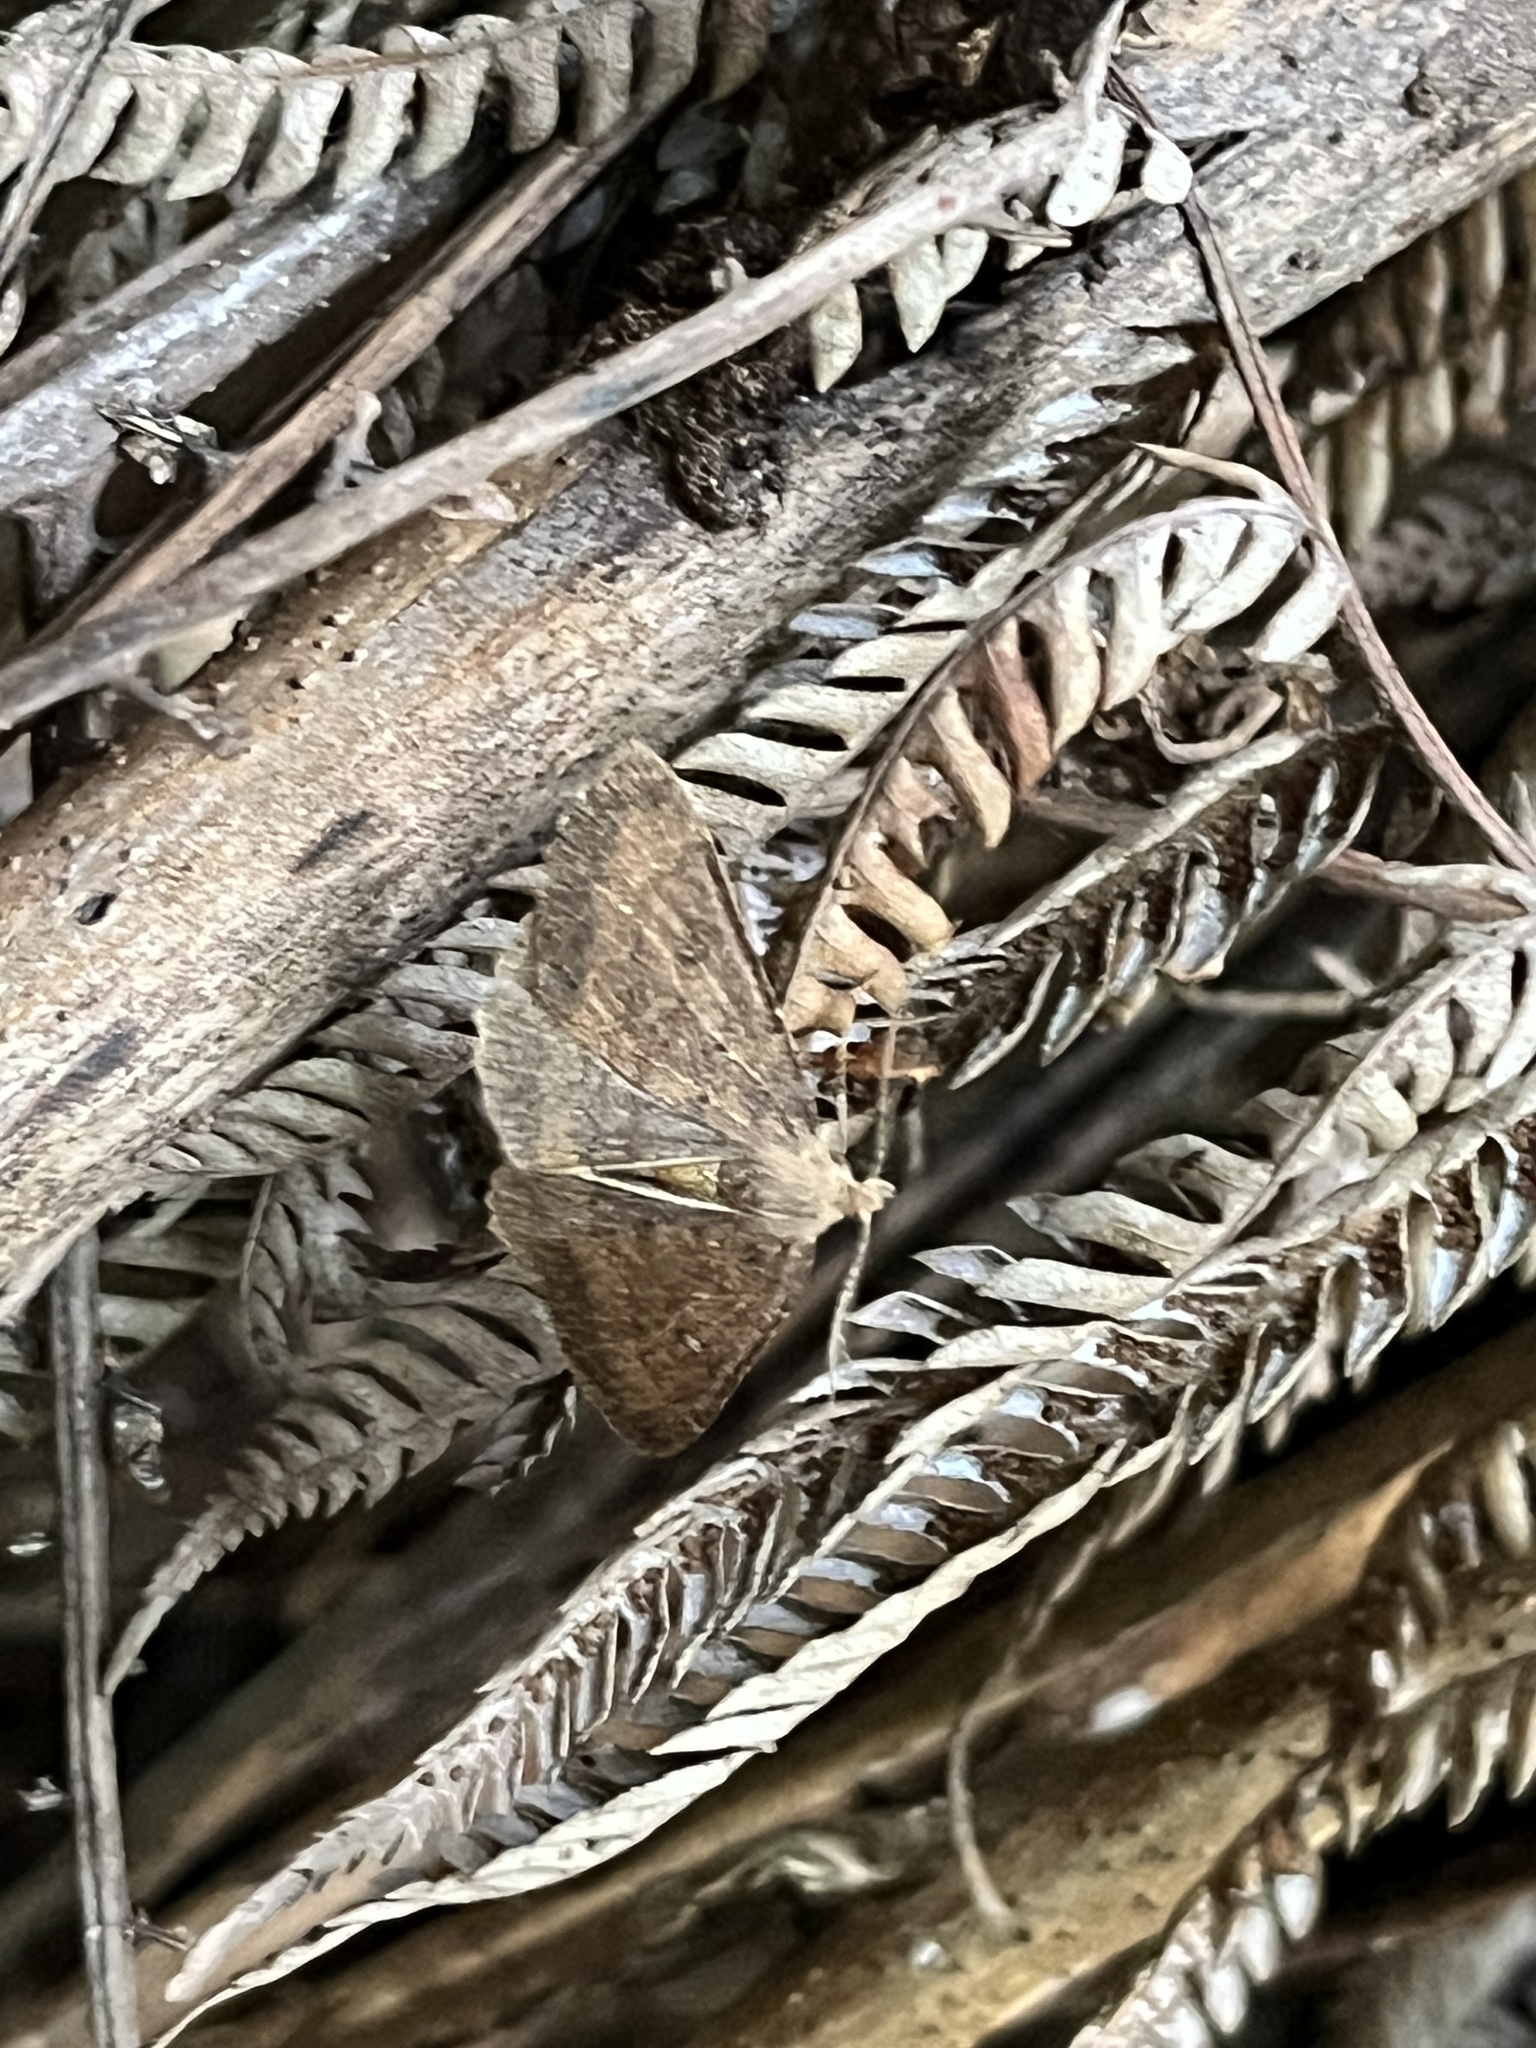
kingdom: Animalia
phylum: Arthropoda
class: Insecta
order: Lepidoptera
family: Geometridae
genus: Cleora
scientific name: Cleora scriptaria
